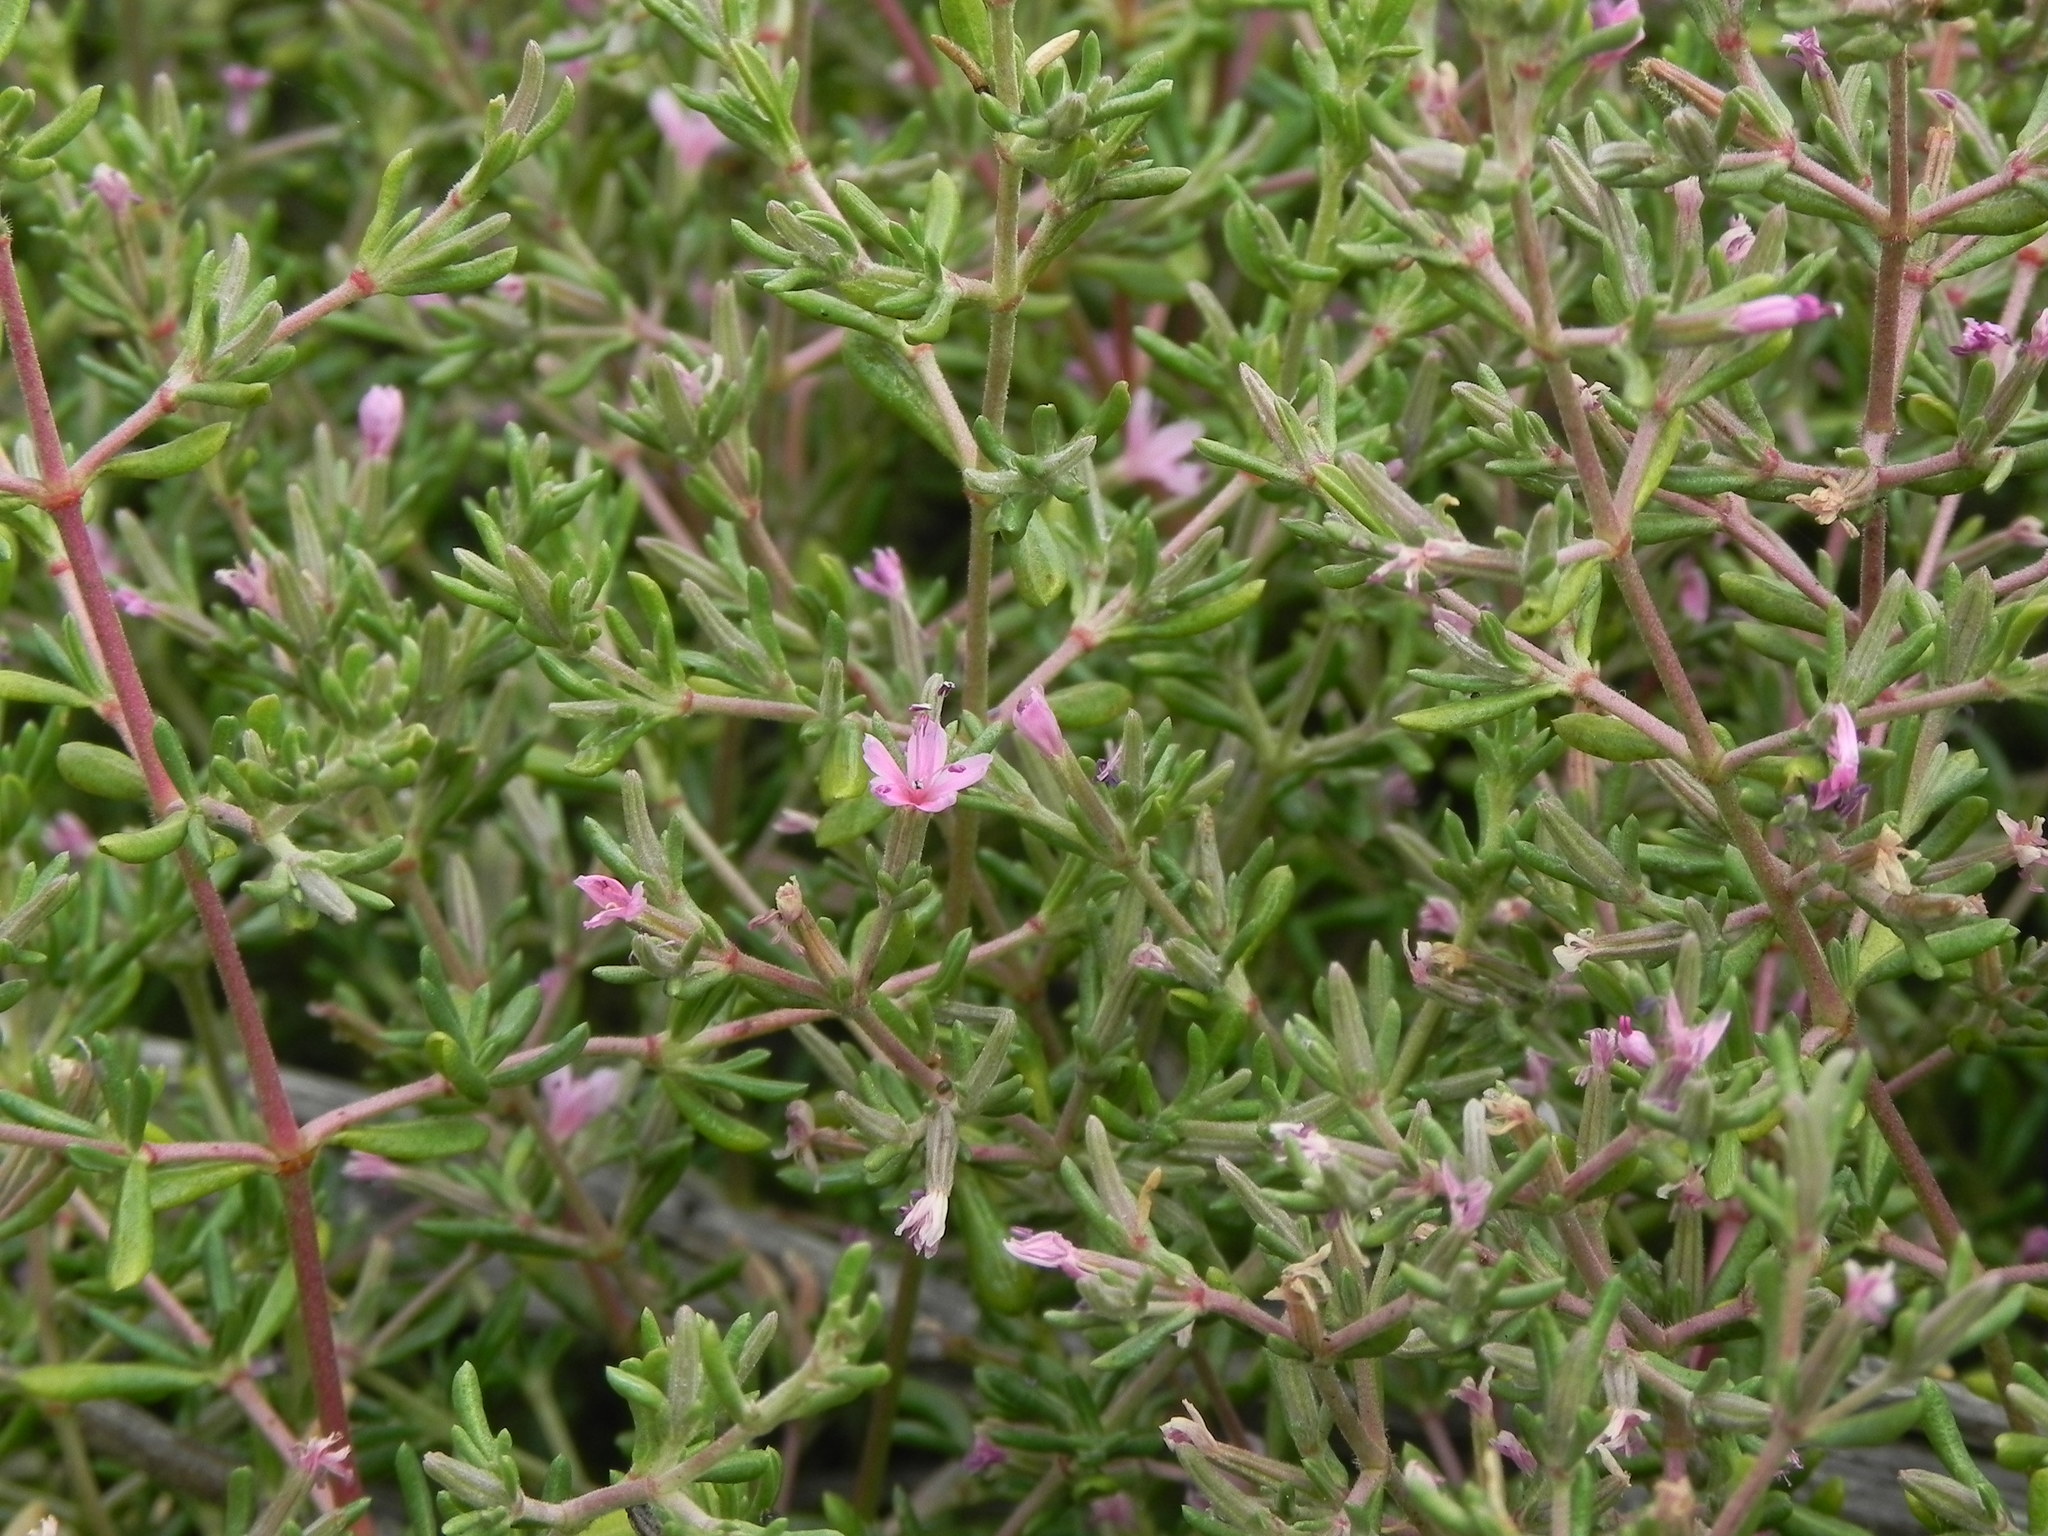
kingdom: Plantae
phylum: Tracheophyta
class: Magnoliopsida
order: Caryophyllales
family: Frankeniaceae
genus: Frankenia
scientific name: Frankenia salina
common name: Alkali seaheath
